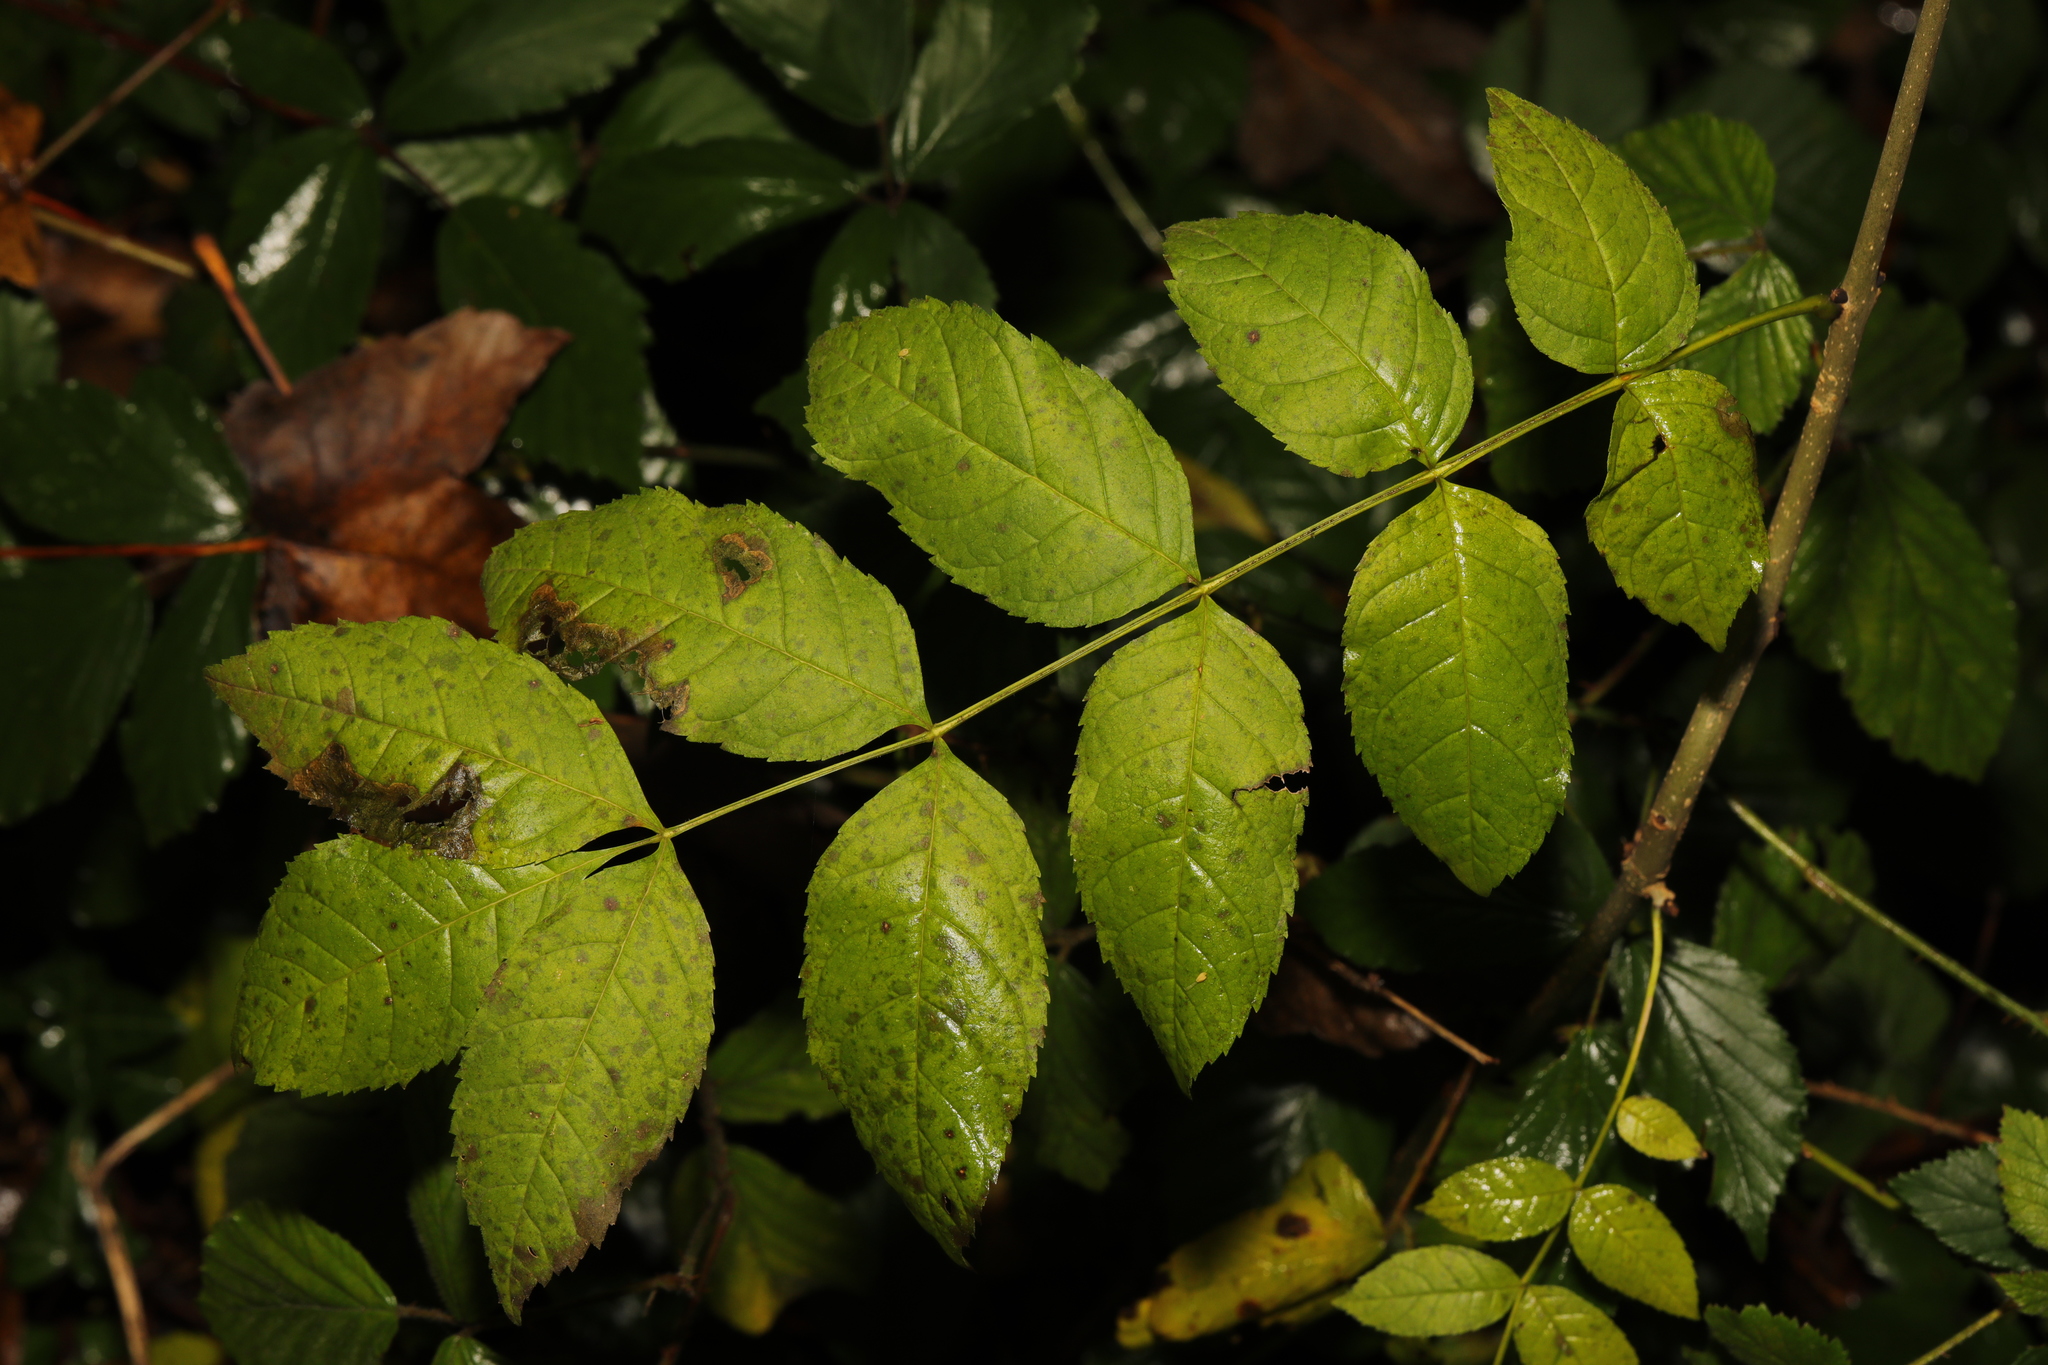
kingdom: Plantae
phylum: Tracheophyta
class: Magnoliopsida
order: Lamiales
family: Oleaceae
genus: Fraxinus
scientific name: Fraxinus excelsior
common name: European ash
